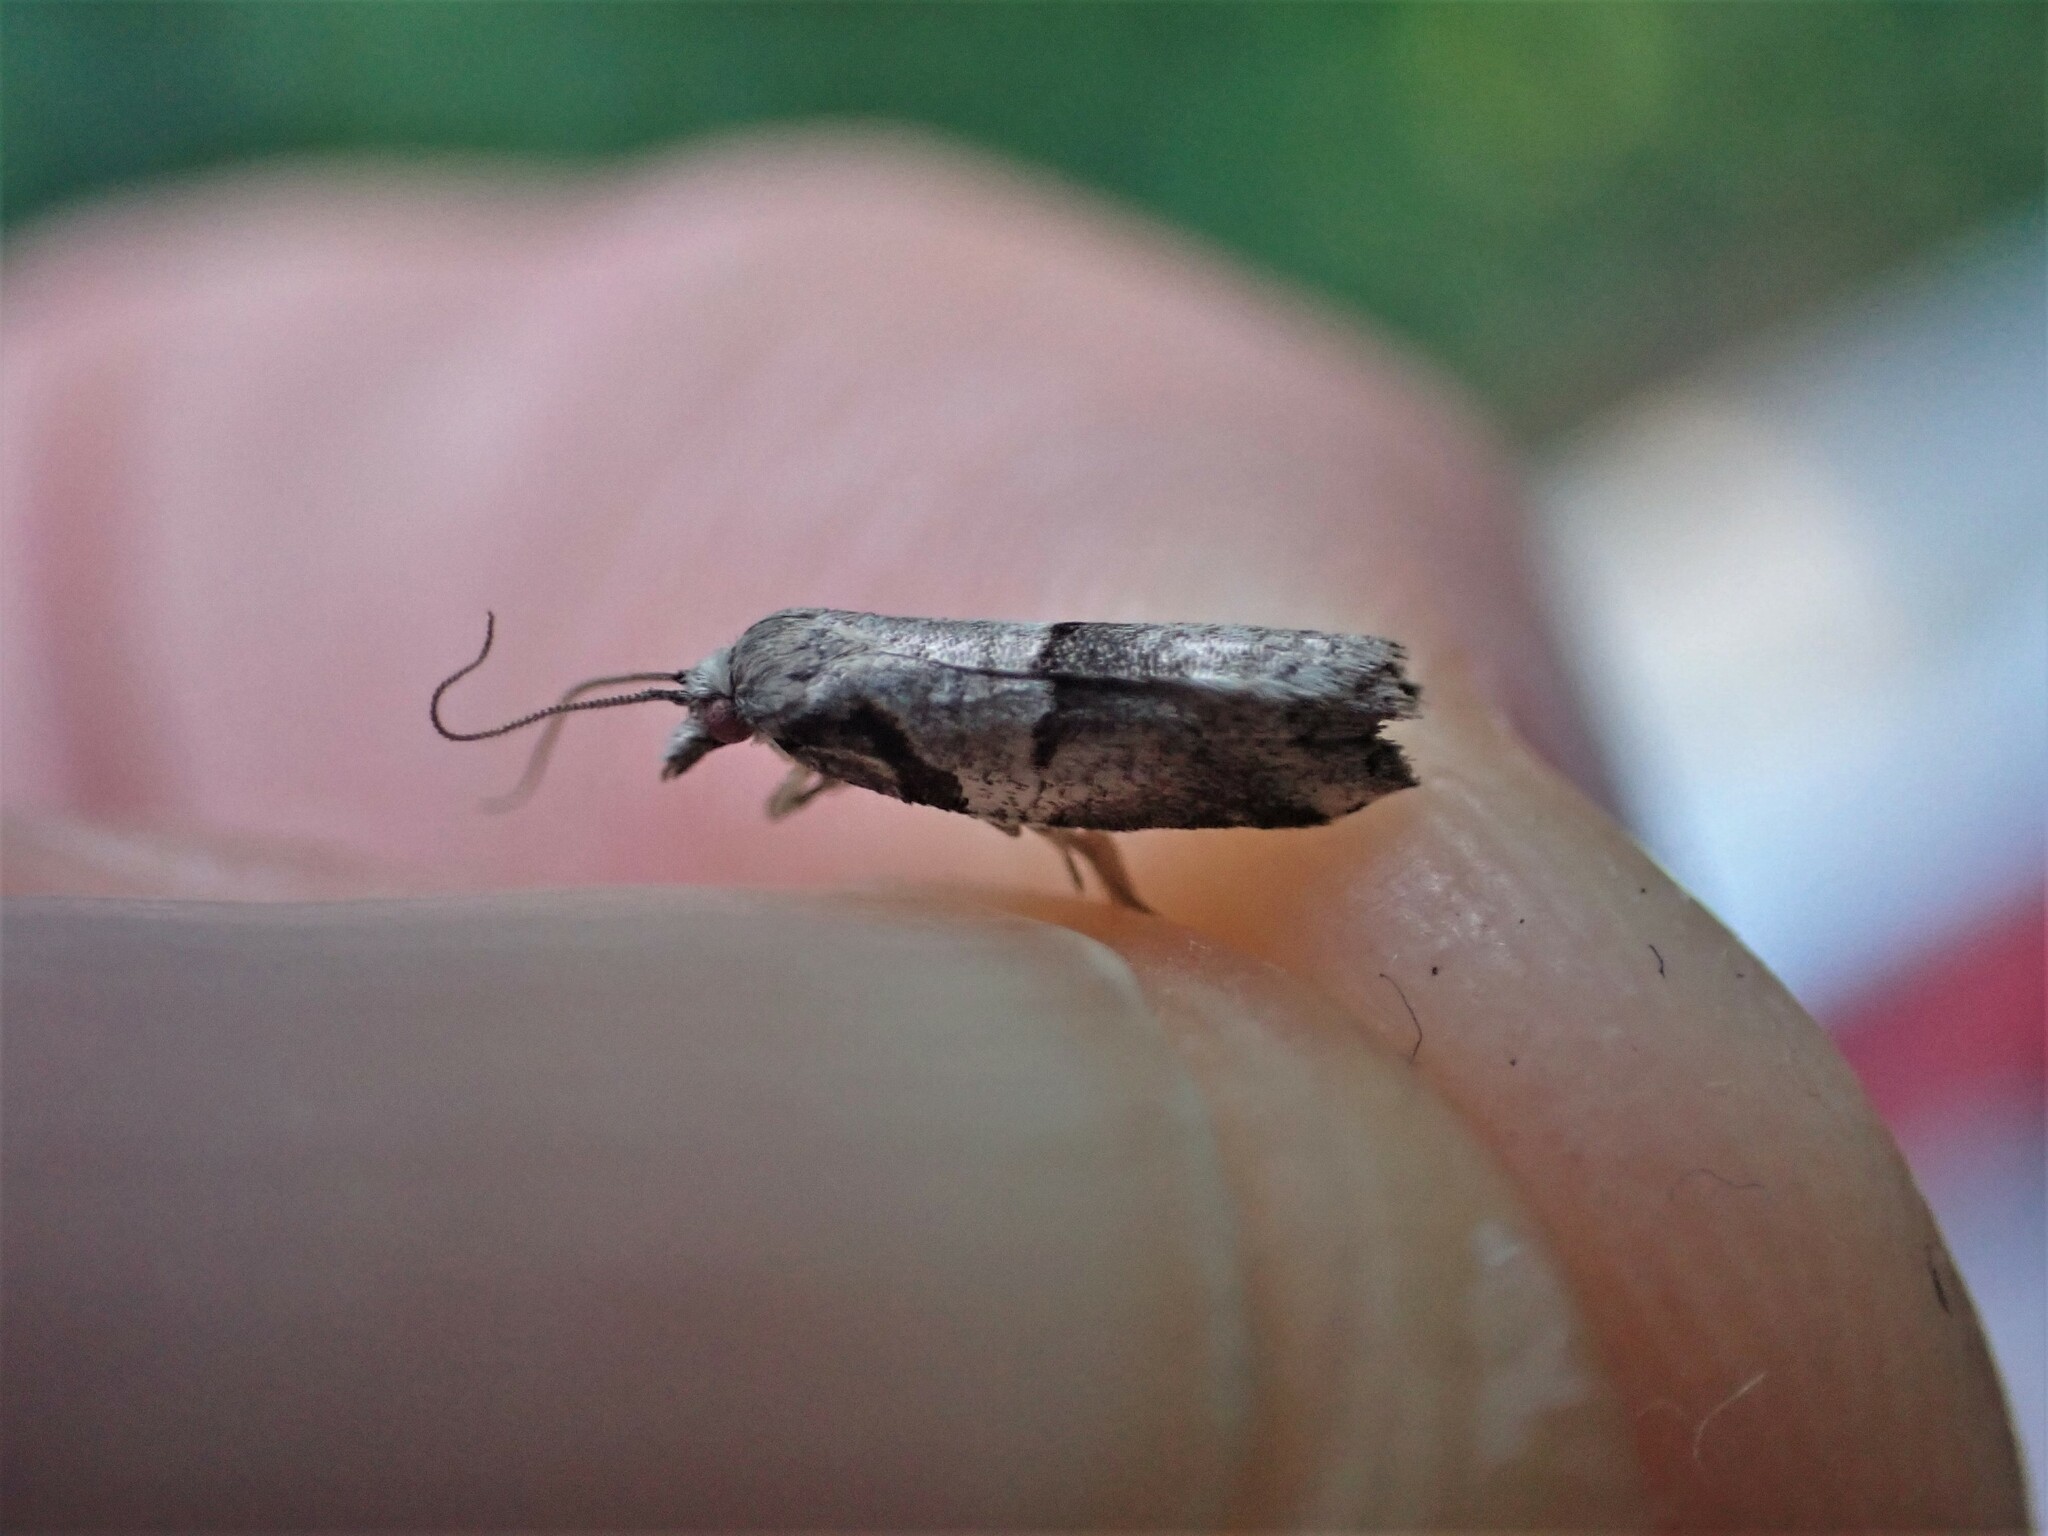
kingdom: Animalia
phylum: Arthropoda
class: Insecta
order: Lepidoptera
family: Tortricidae
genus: Harmologa
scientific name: Harmologa amplexana
